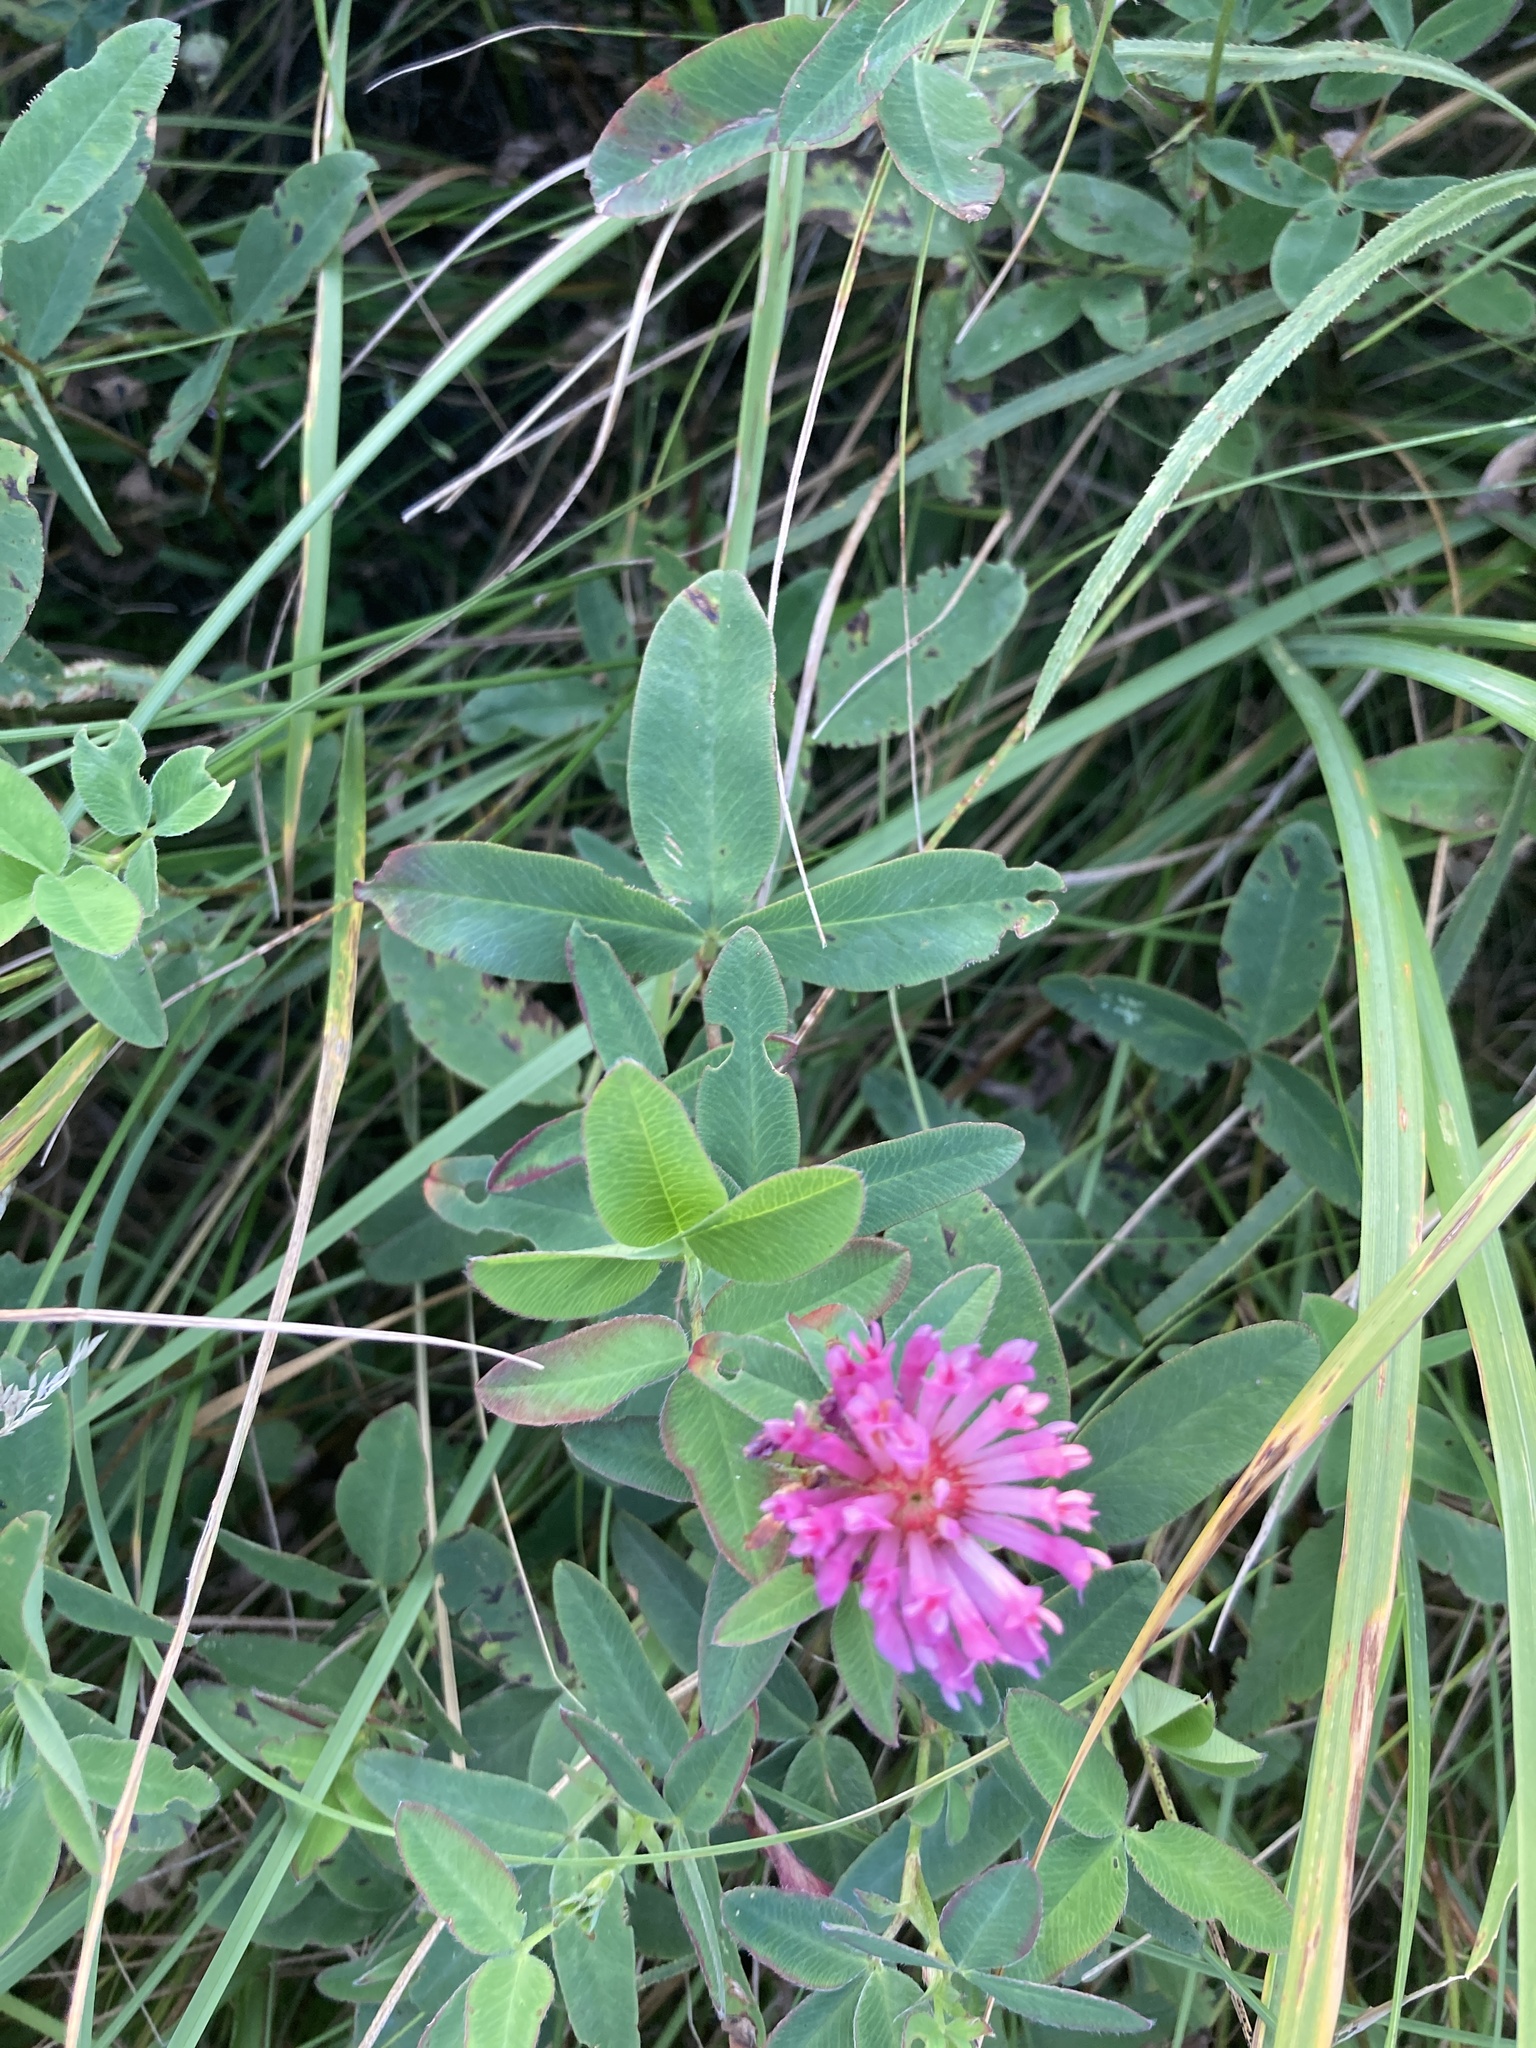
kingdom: Plantae
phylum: Tracheophyta
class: Magnoliopsida
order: Fabales
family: Fabaceae
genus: Trifolium
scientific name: Trifolium medium
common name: Zigzag clover
